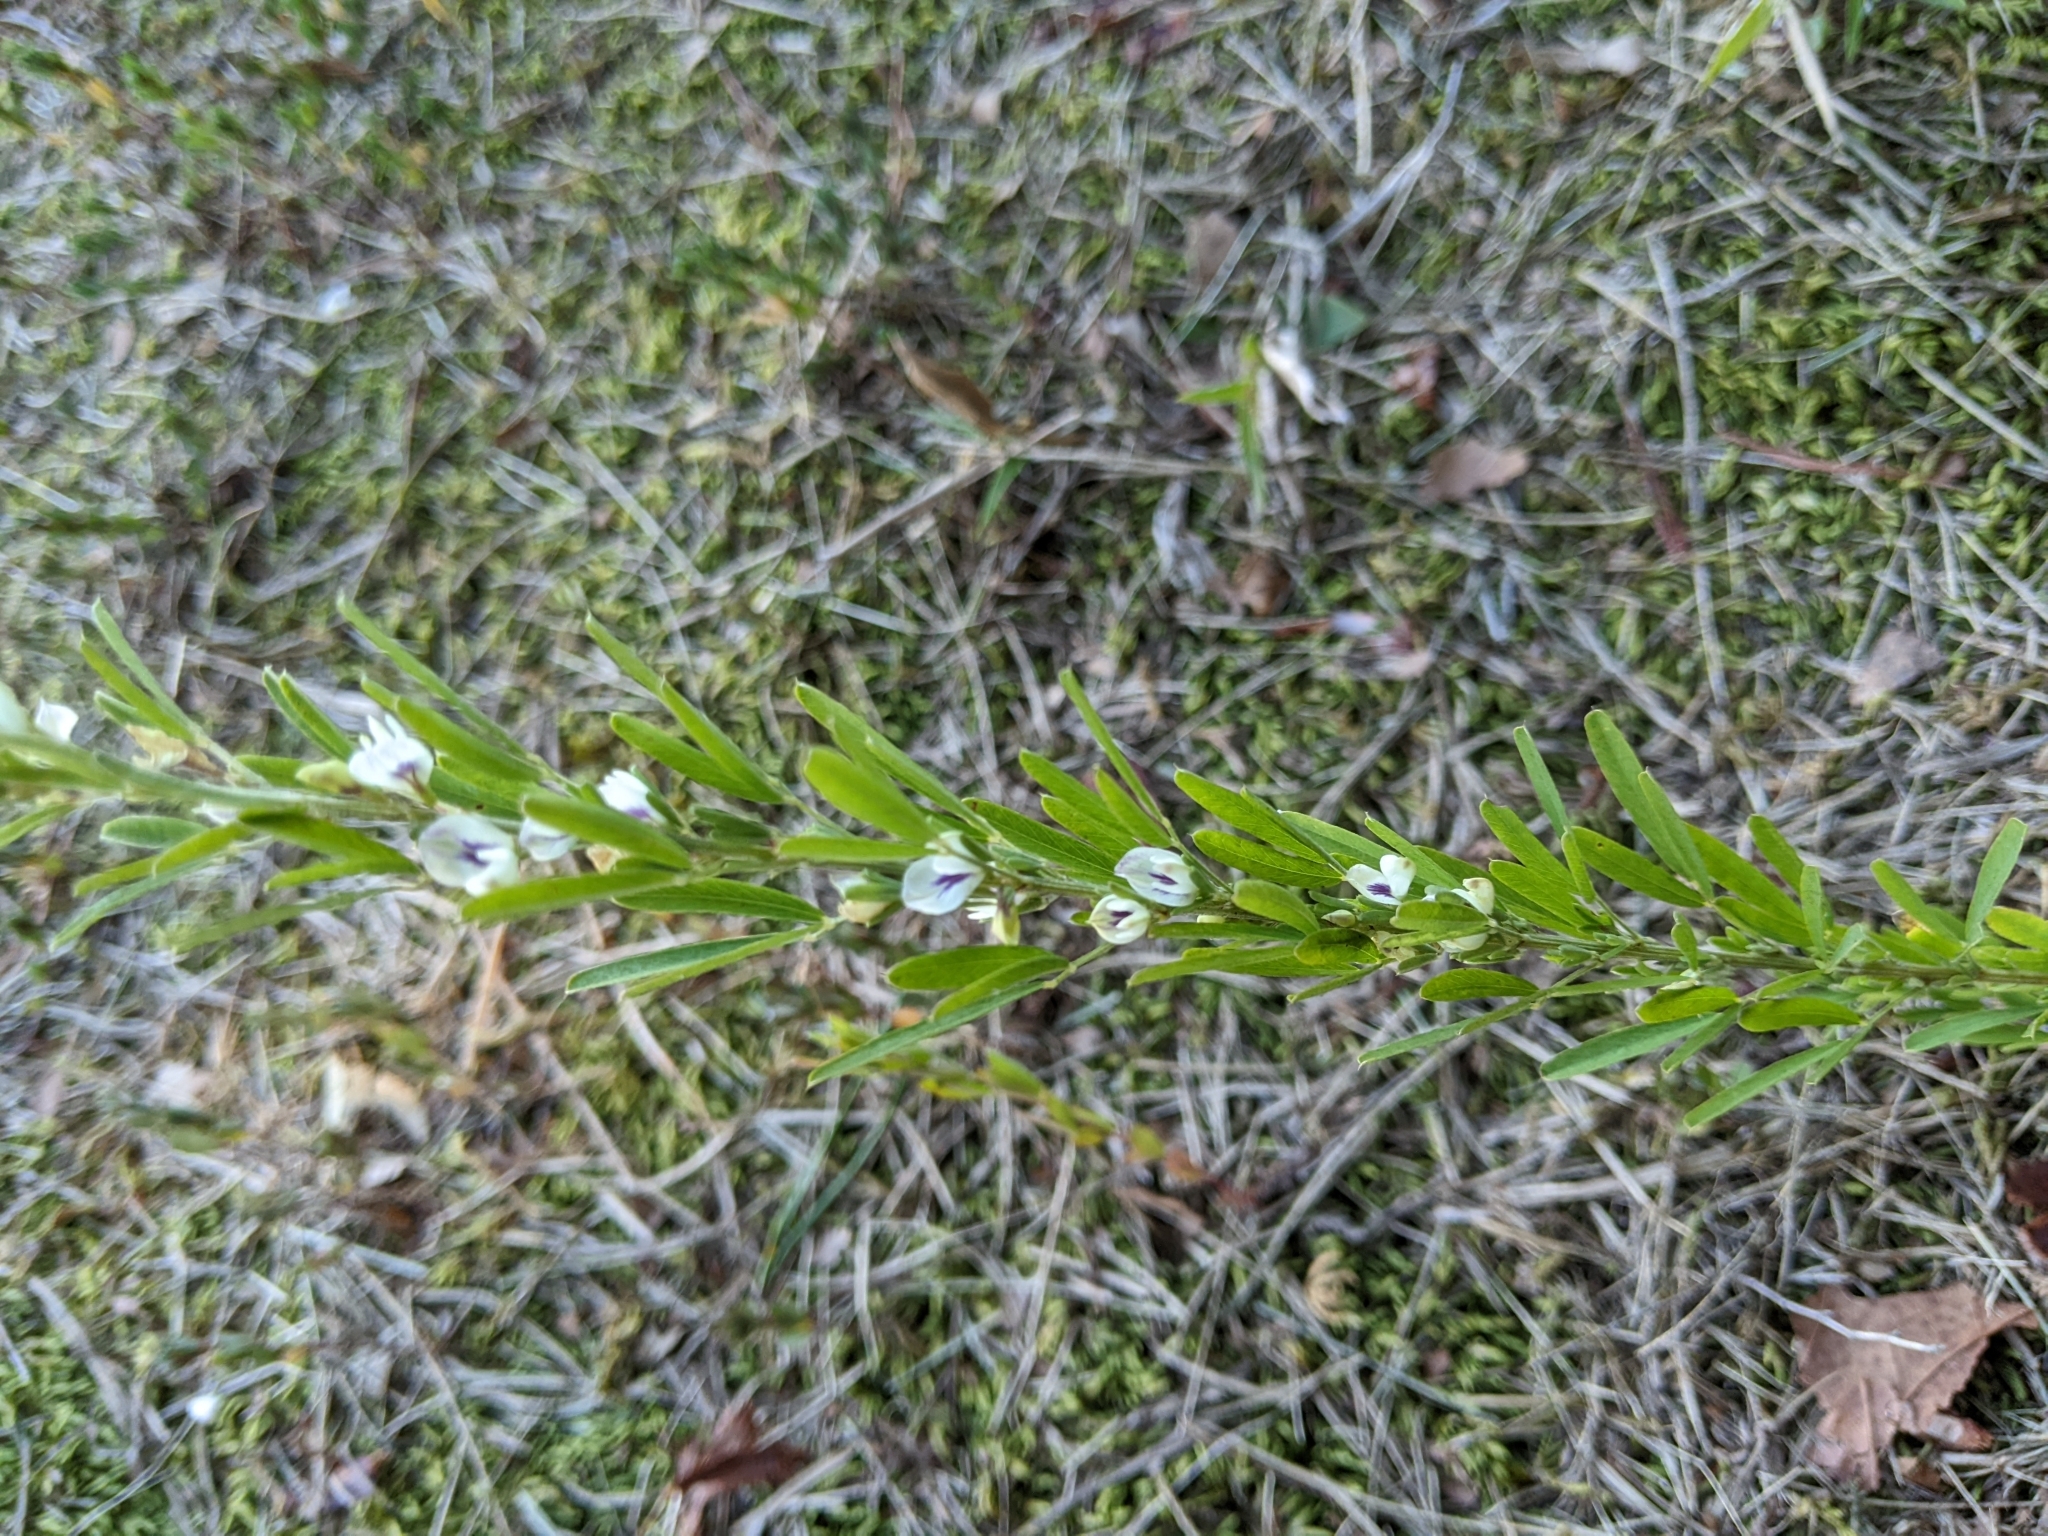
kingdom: Plantae
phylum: Tracheophyta
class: Magnoliopsida
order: Fabales
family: Fabaceae
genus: Lespedeza
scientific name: Lespedeza cuneata
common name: Chinese bush-clover
